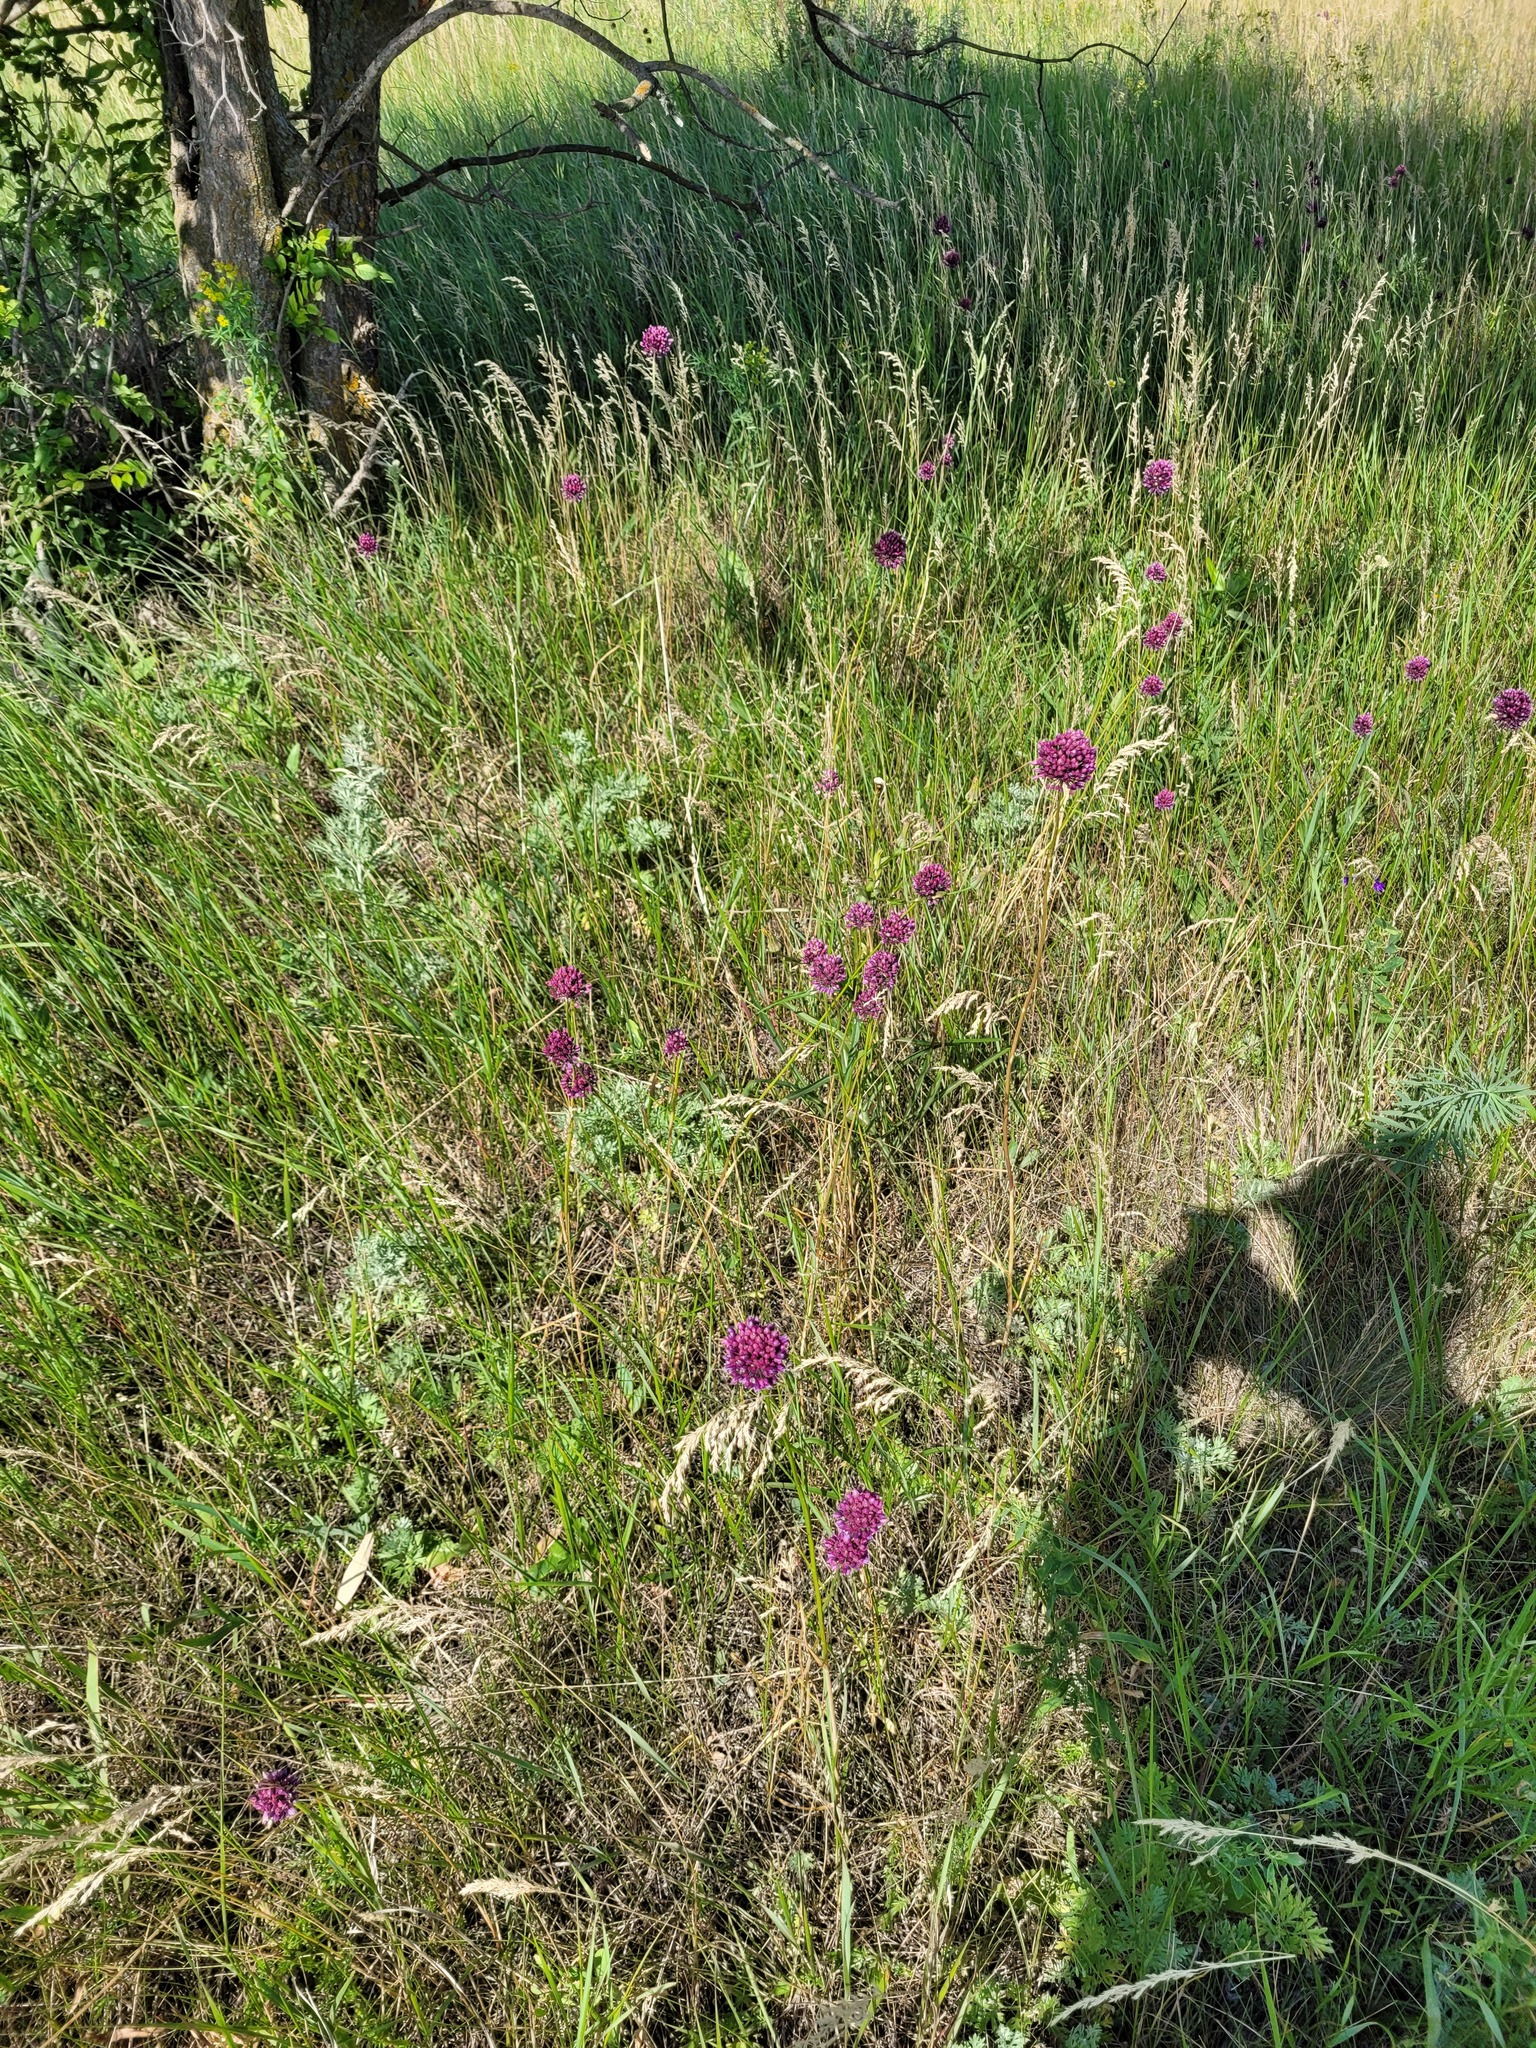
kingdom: Plantae
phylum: Tracheophyta
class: Liliopsida
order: Asparagales
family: Amaryllidaceae
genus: Allium
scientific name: Allium rotundum
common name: Sand leek
